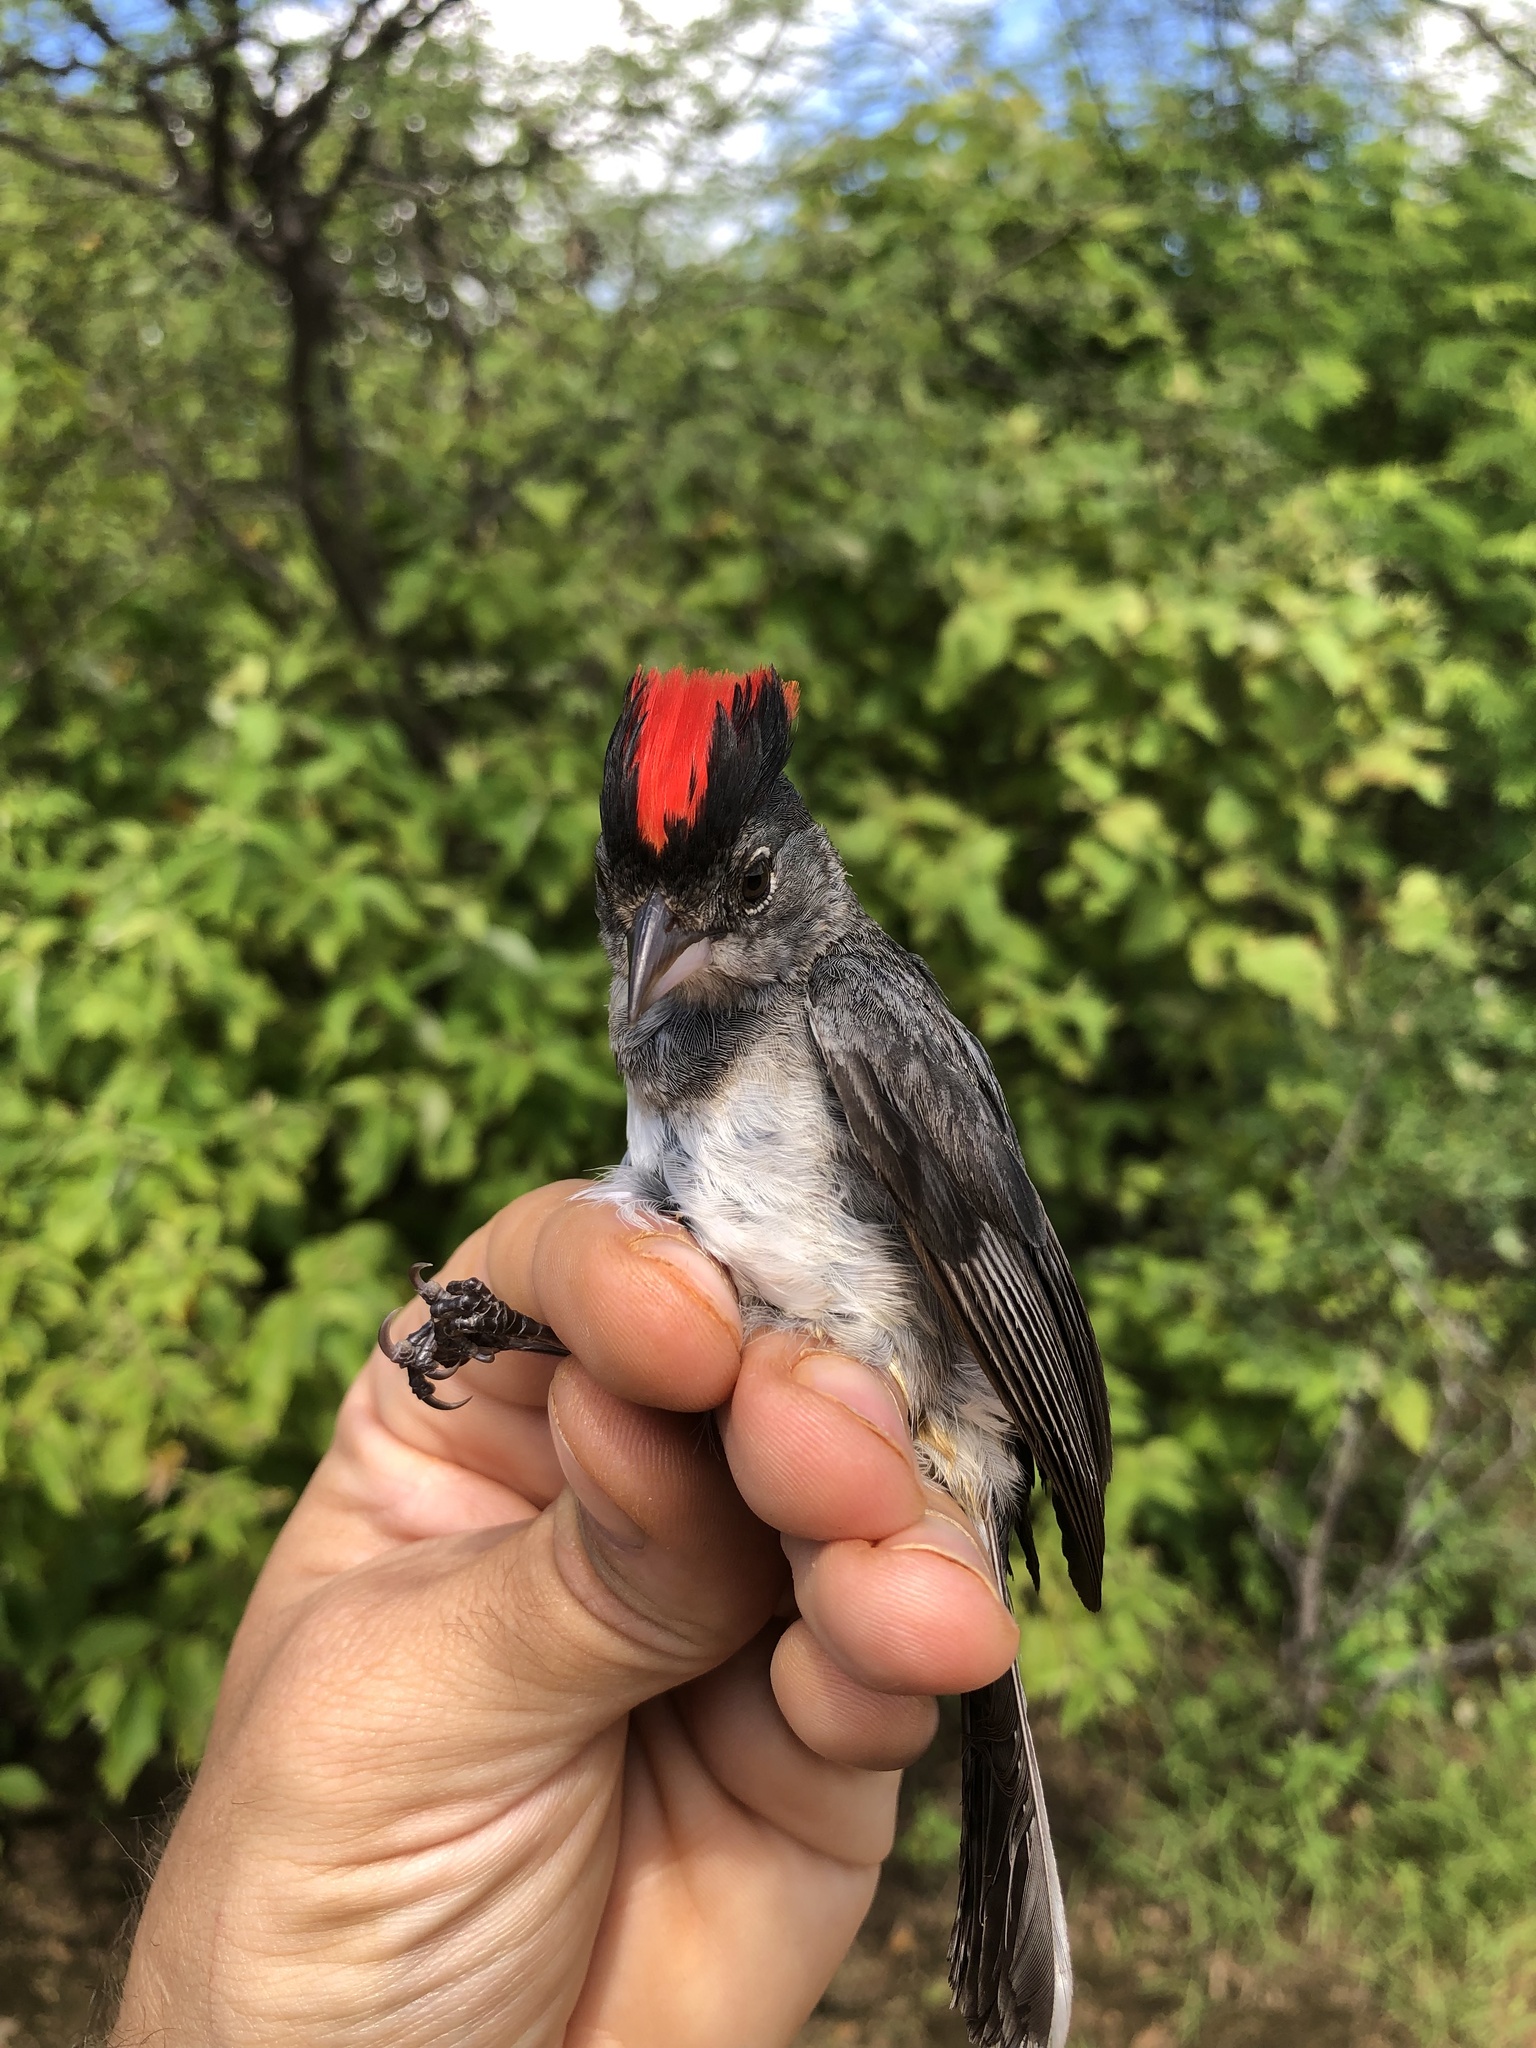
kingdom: Animalia
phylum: Chordata
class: Aves
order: Passeriformes
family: Thraupidae
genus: Coryphospingus
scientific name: Coryphospingus pileatus
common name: Grey pileated finch
